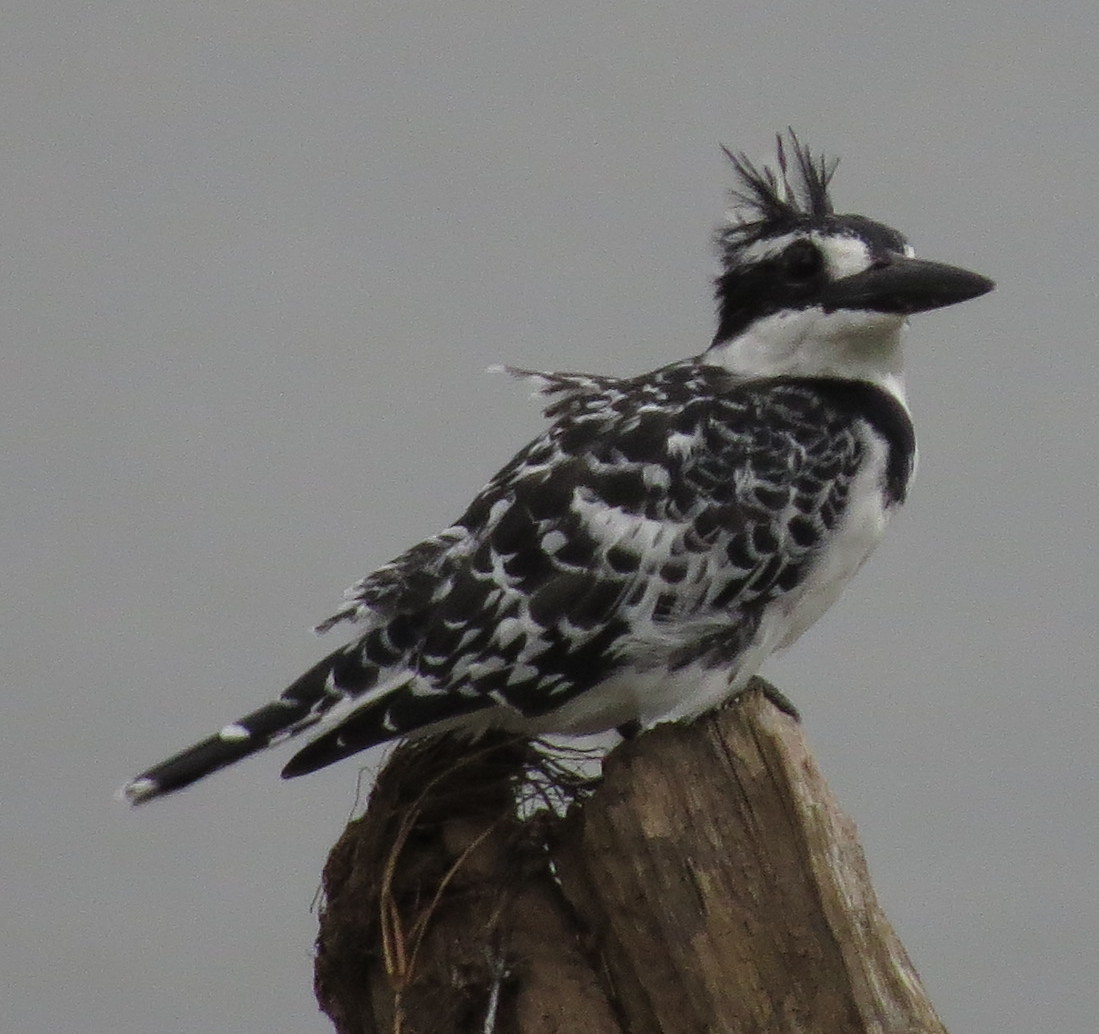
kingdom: Animalia
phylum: Chordata
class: Aves
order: Coraciiformes
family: Alcedinidae
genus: Ceryle
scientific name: Ceryle rudis
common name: Pied kingfisher
